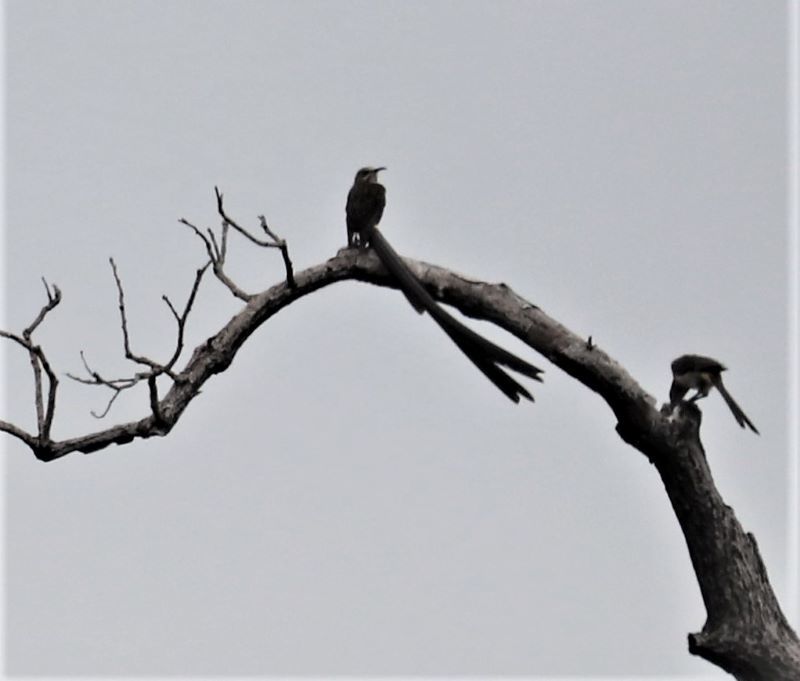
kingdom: Animalia
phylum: Chordata
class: Aves
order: Passeriformes
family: Promeropidae
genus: Promerops
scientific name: Promerops cafer
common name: Cape sugarbird
